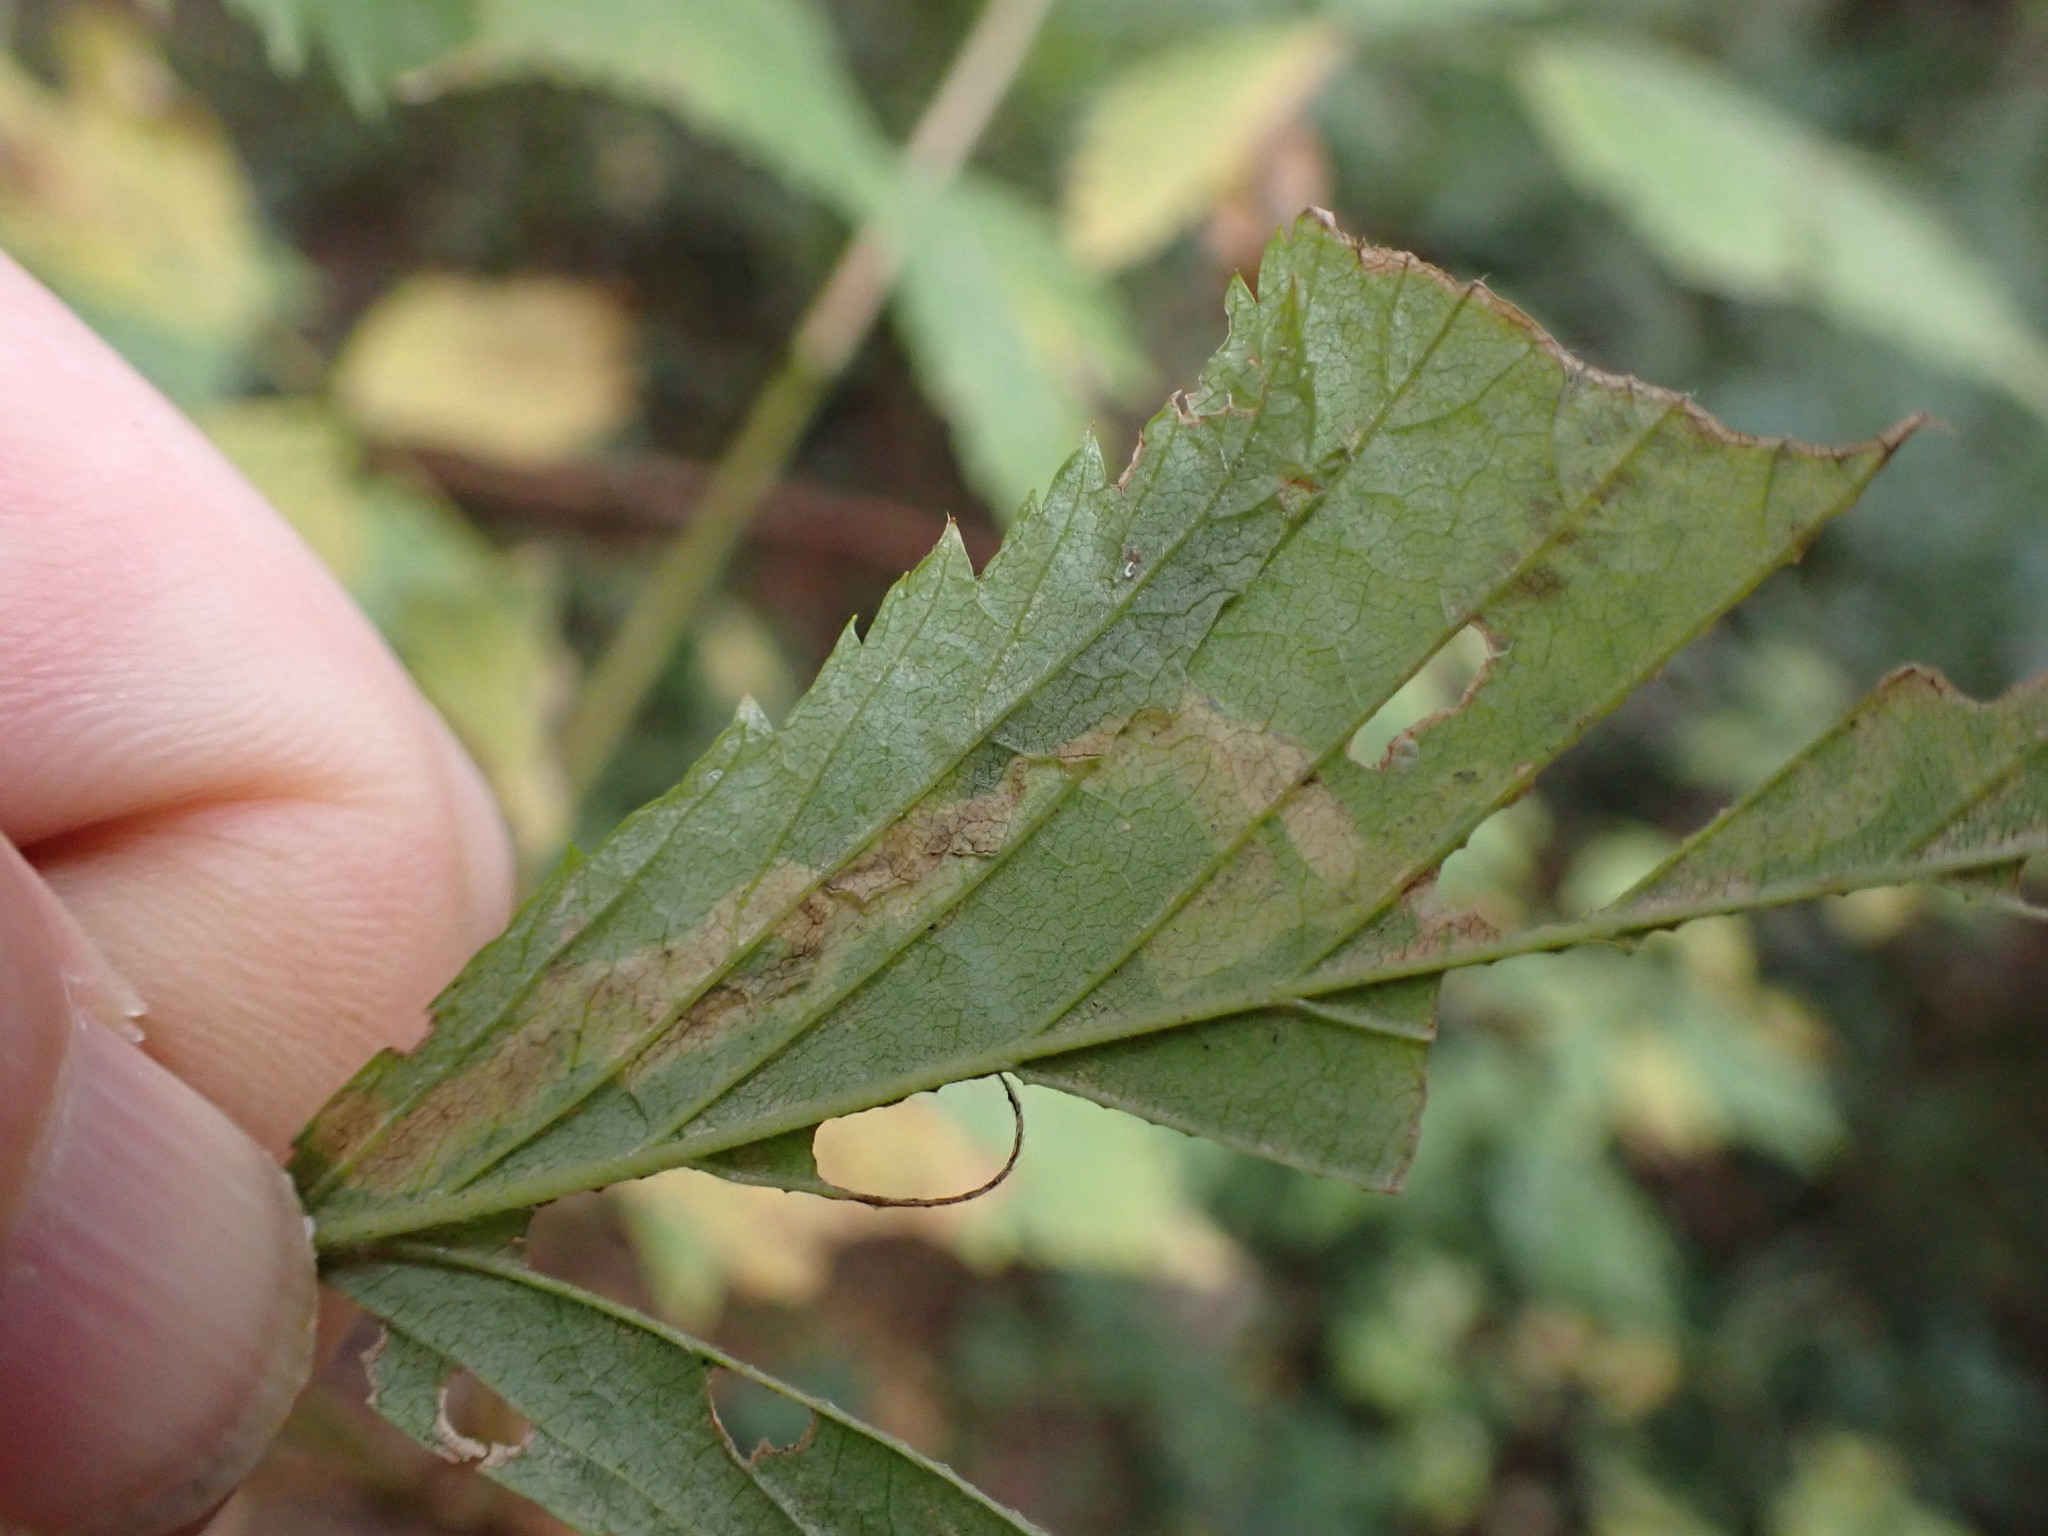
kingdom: Animalia
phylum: Arthropoda
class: Insecta
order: Diptera
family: Agromyzidae
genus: Agromyza
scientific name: Agromyza vockerothi
